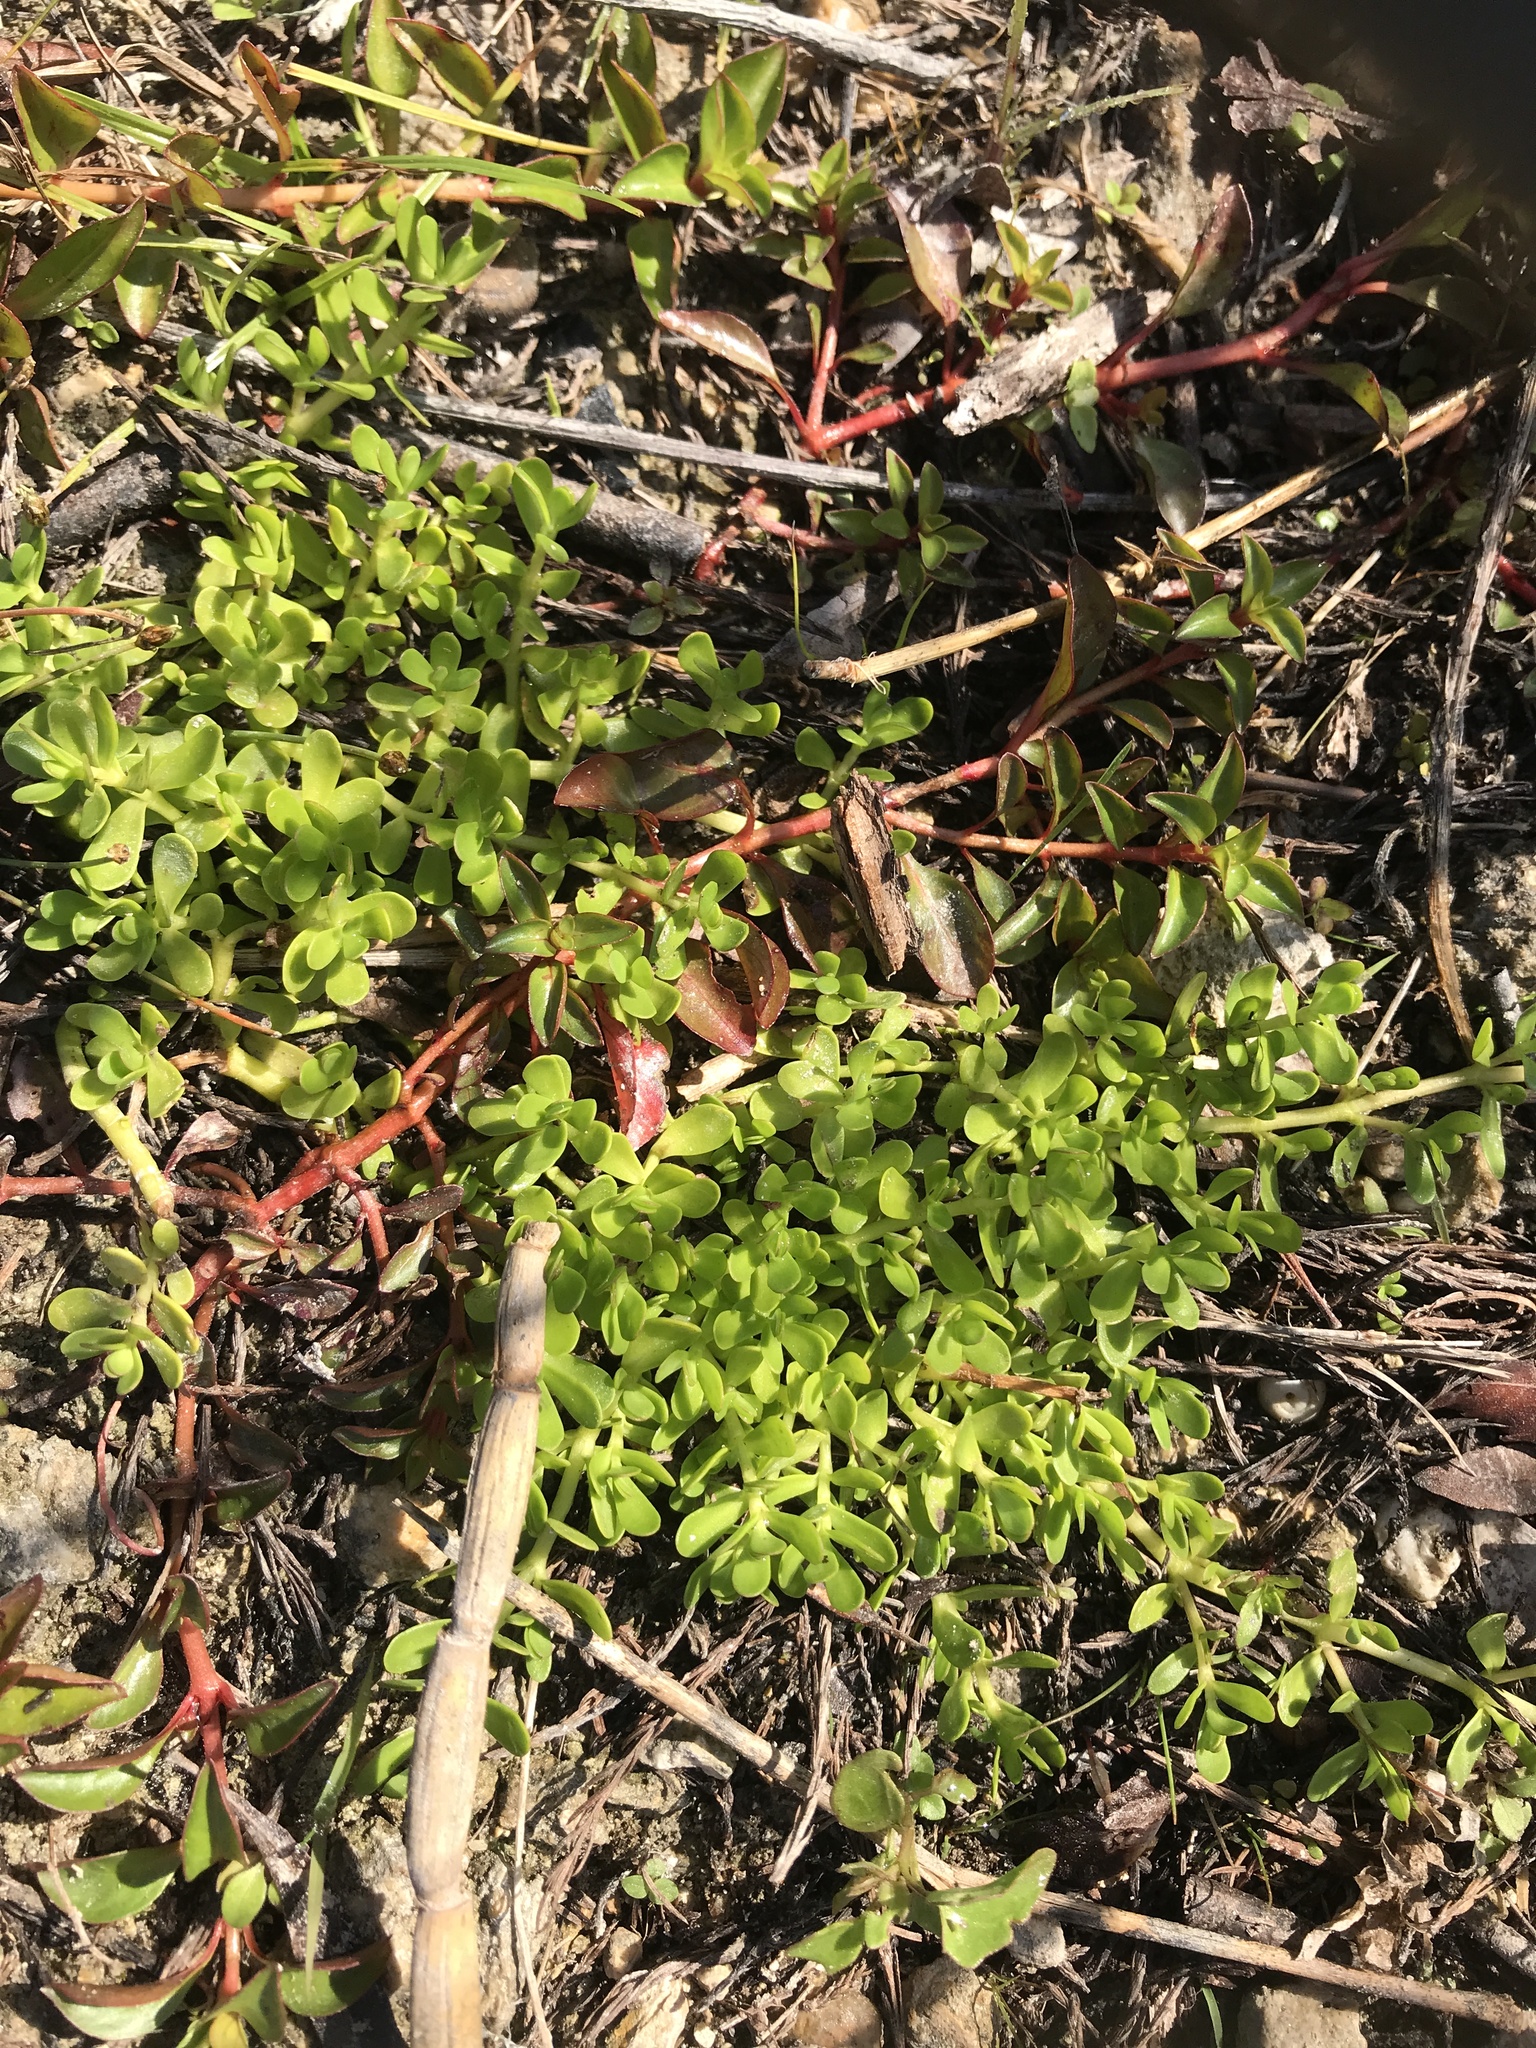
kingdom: Plantae
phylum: Tracheophyta
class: Magnoliopsida
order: Lamiales
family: Plantaginaceae
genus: Bacopa
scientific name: Bacopa monnieri
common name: Indian-pennywort
